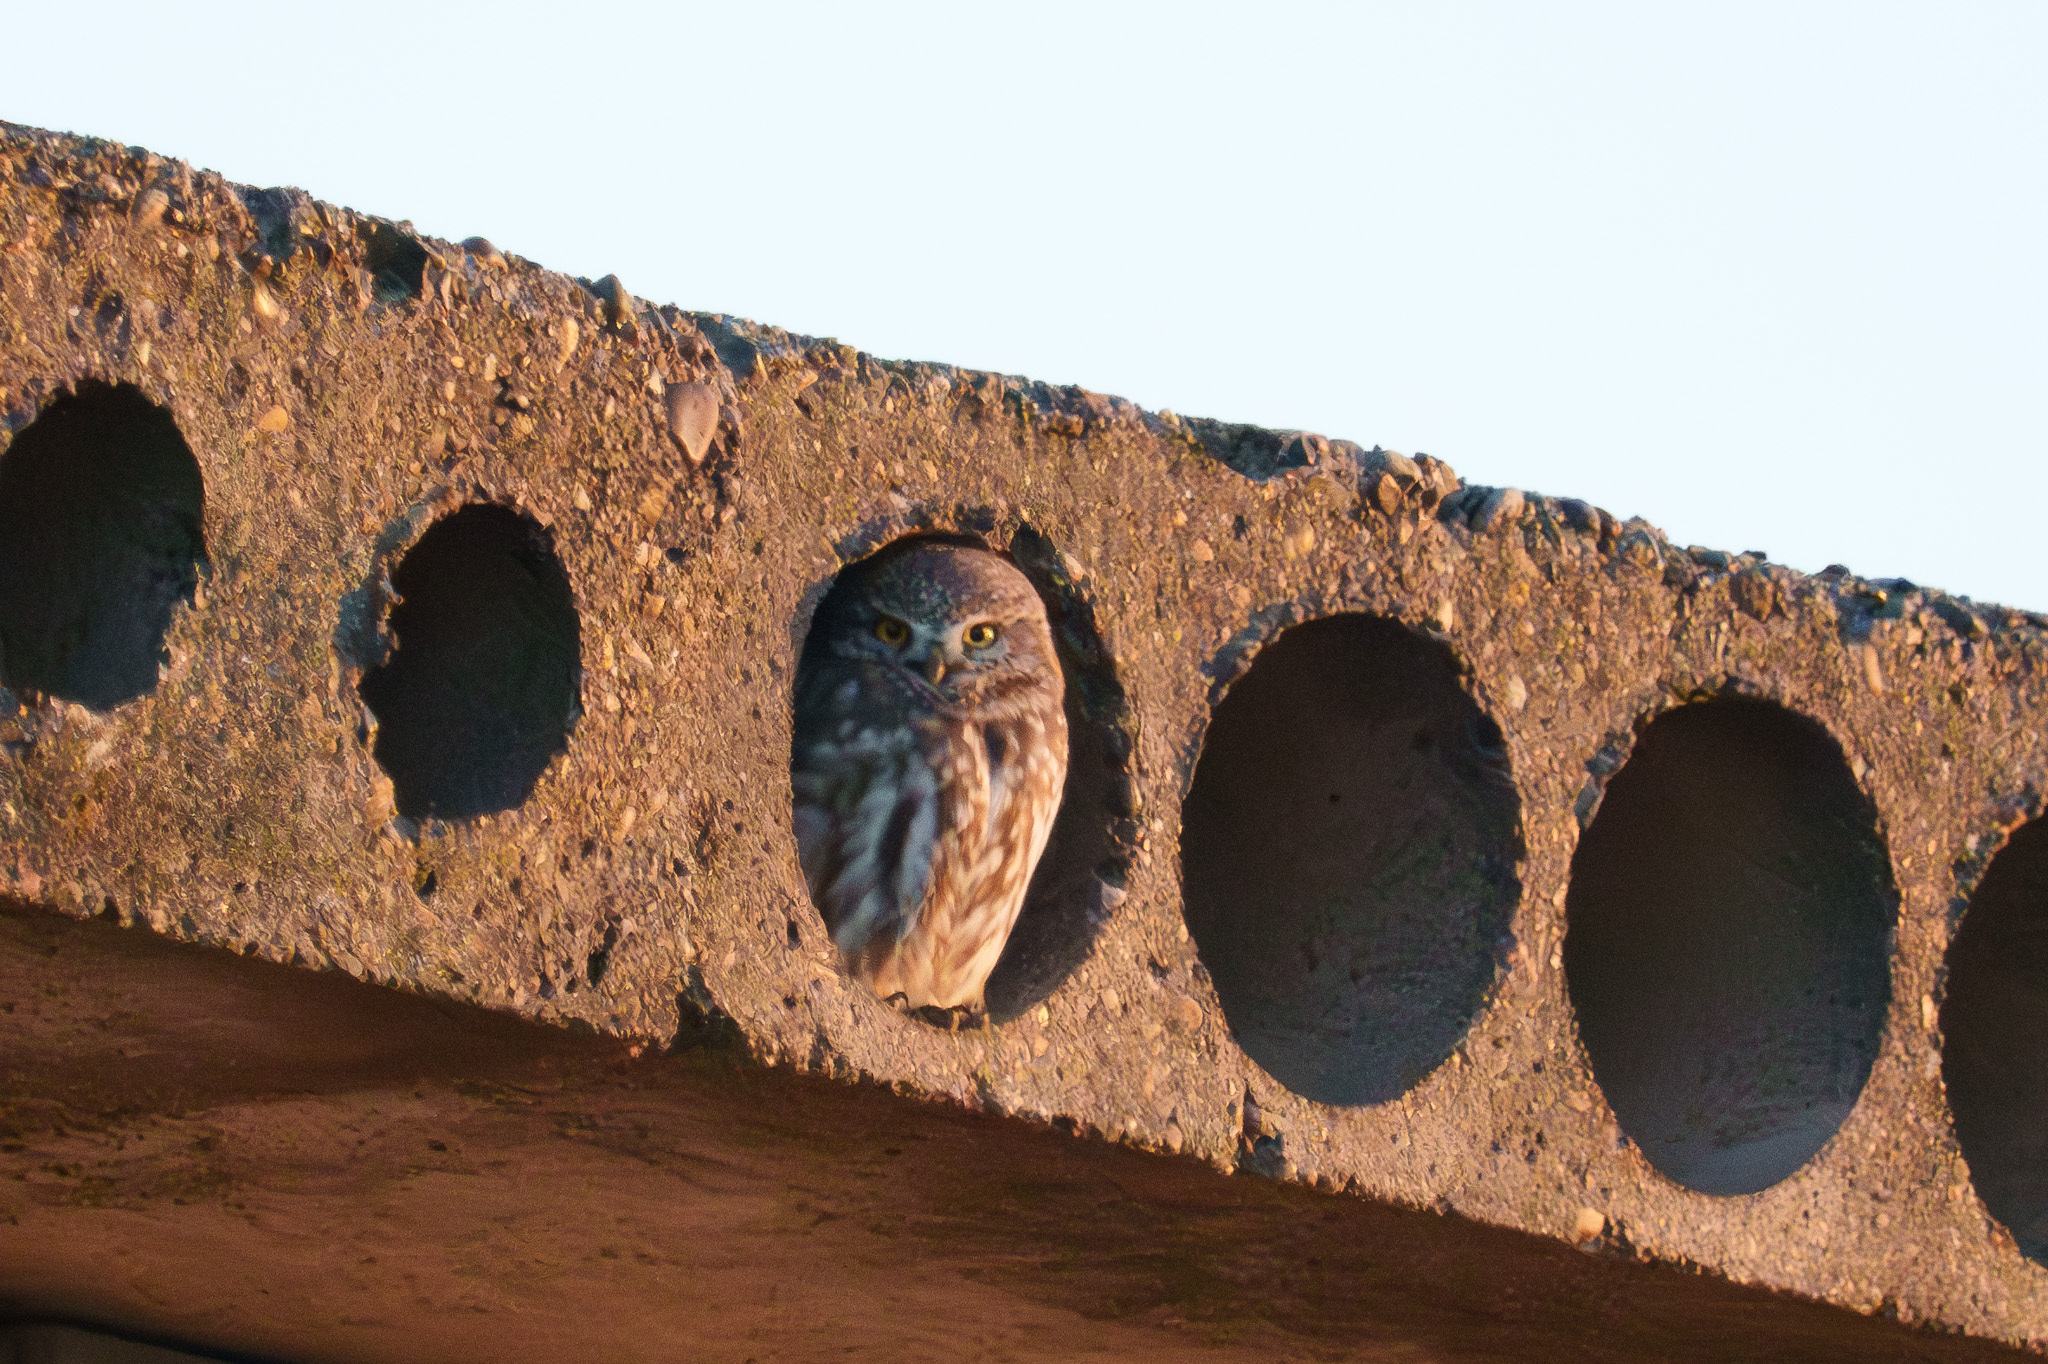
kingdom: Animalia
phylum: Chordata
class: Aves
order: Strigiformes
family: Strigidae
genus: Athene
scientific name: Athene noctua
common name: Little owl
